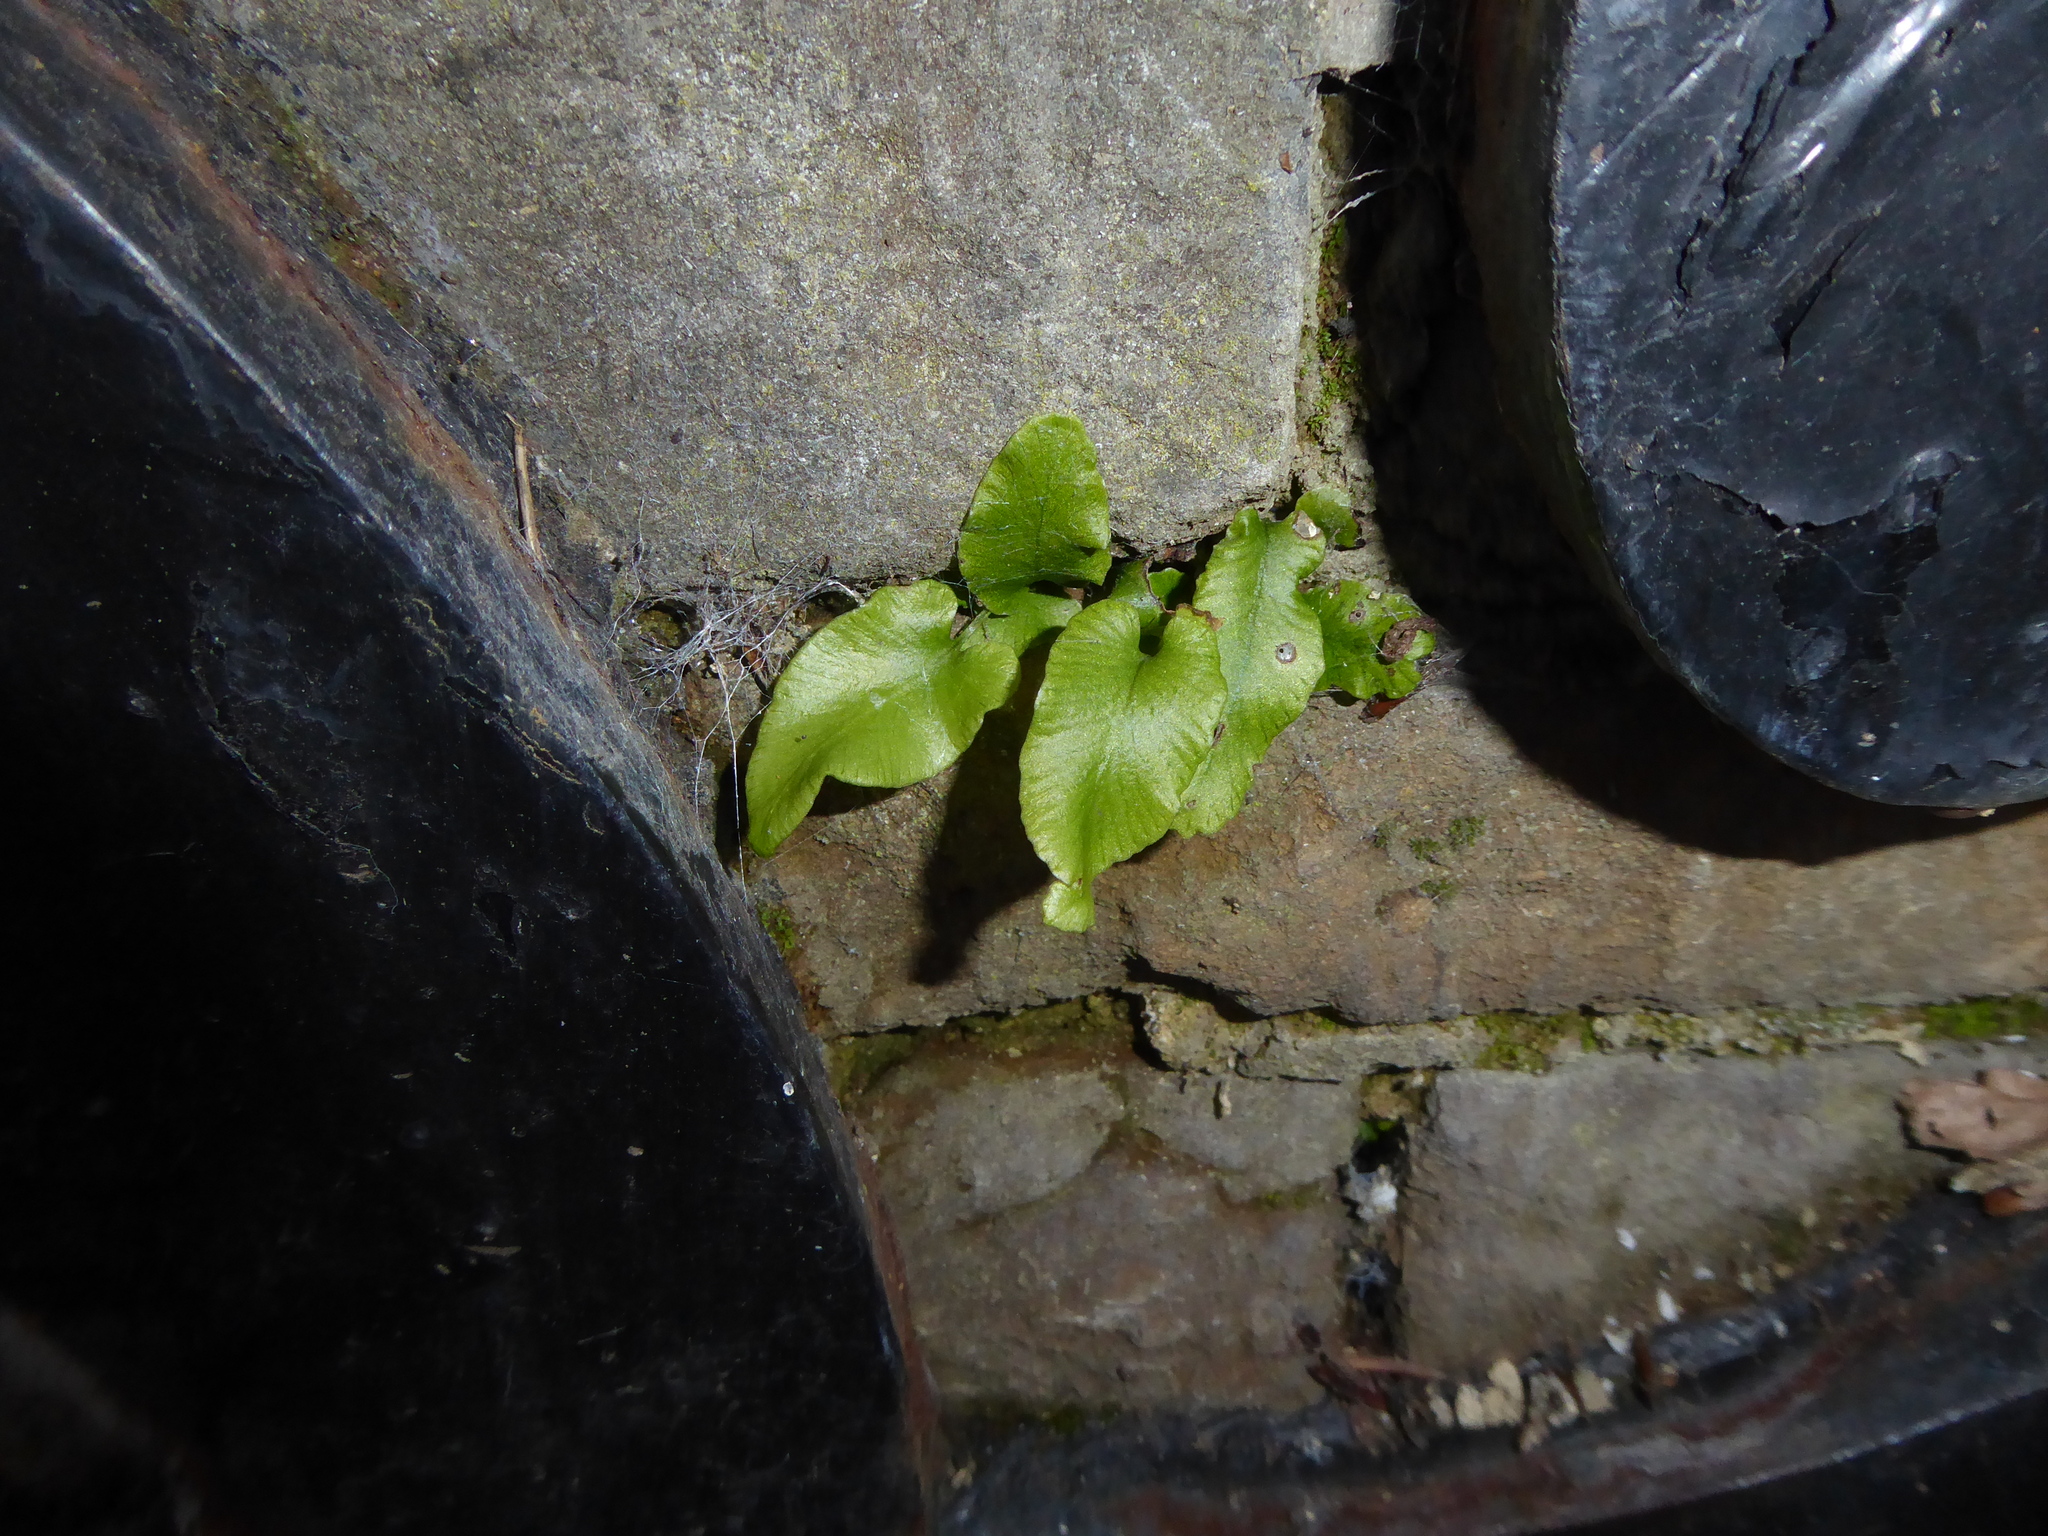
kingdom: Plantae
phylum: Tracheophyta
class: Polypodiopsida
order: Polypodiales
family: Aspleniaceae
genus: Asplenium
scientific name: Asplenium scolopendrium
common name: Hart's-tongue fern
